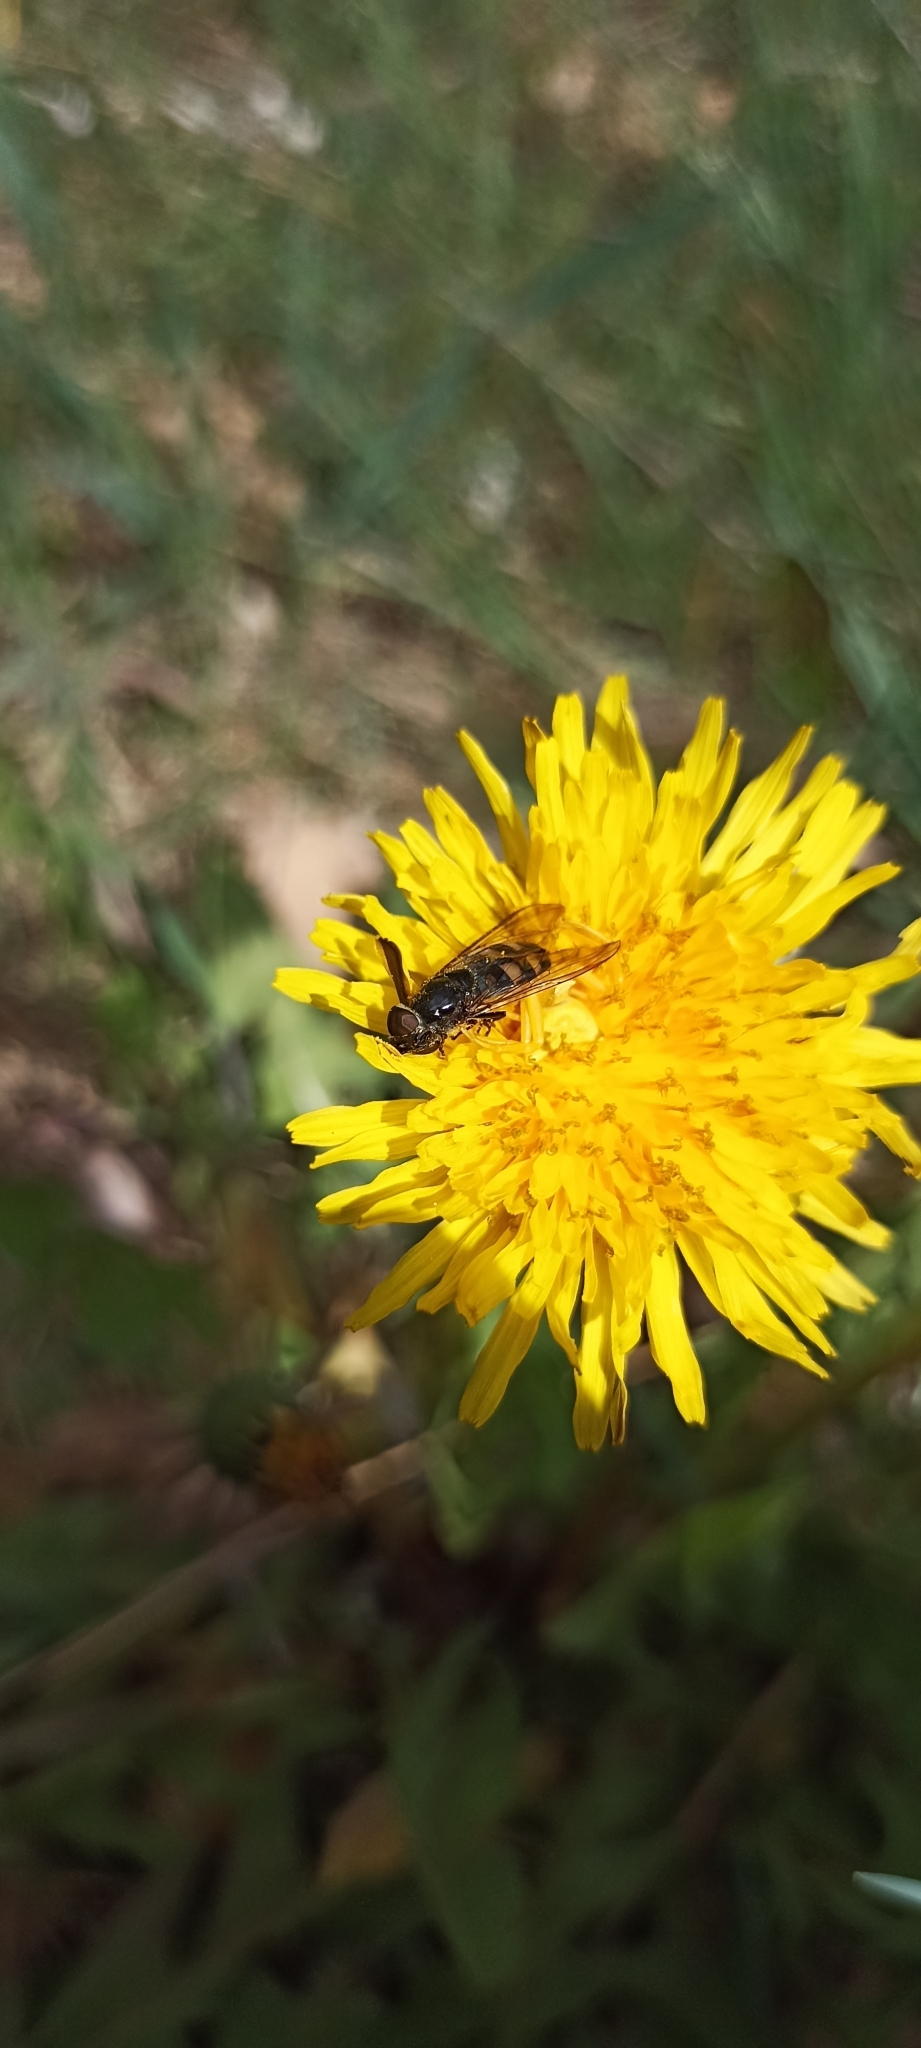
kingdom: Animalia
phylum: Arthropoda
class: Arachnida
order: Araneae
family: Thomisidae
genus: Thomisus
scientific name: Thomisus onustus
